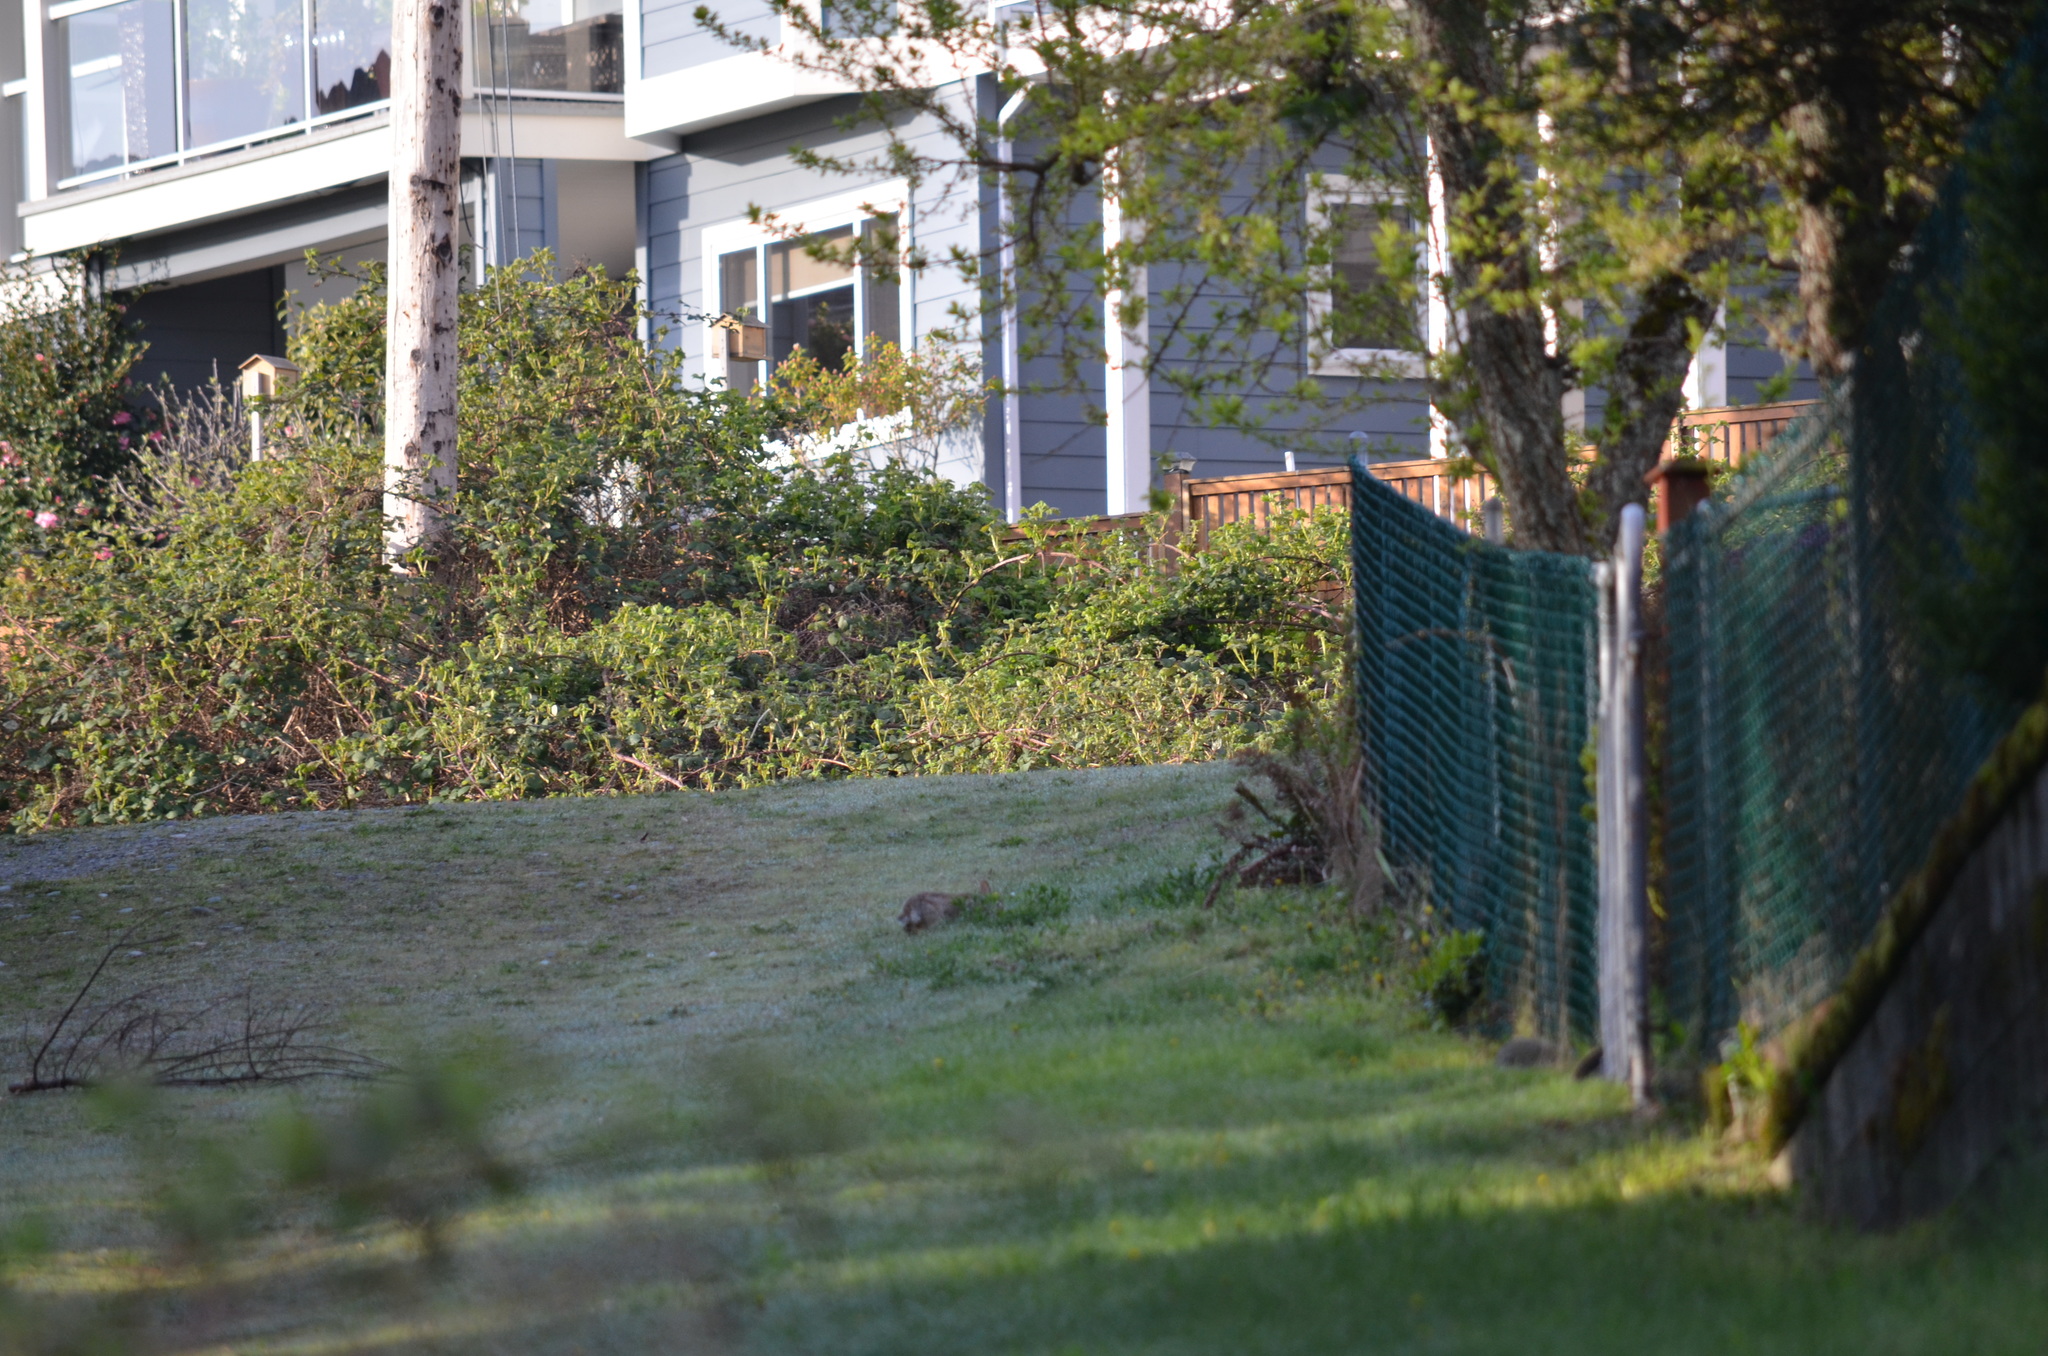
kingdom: Animalia
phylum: Chordata
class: Mammalia
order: Lagomorpha
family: Leporidae
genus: Sylvilagus
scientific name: Sylvilagus floridanus
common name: Eastern cottontail
